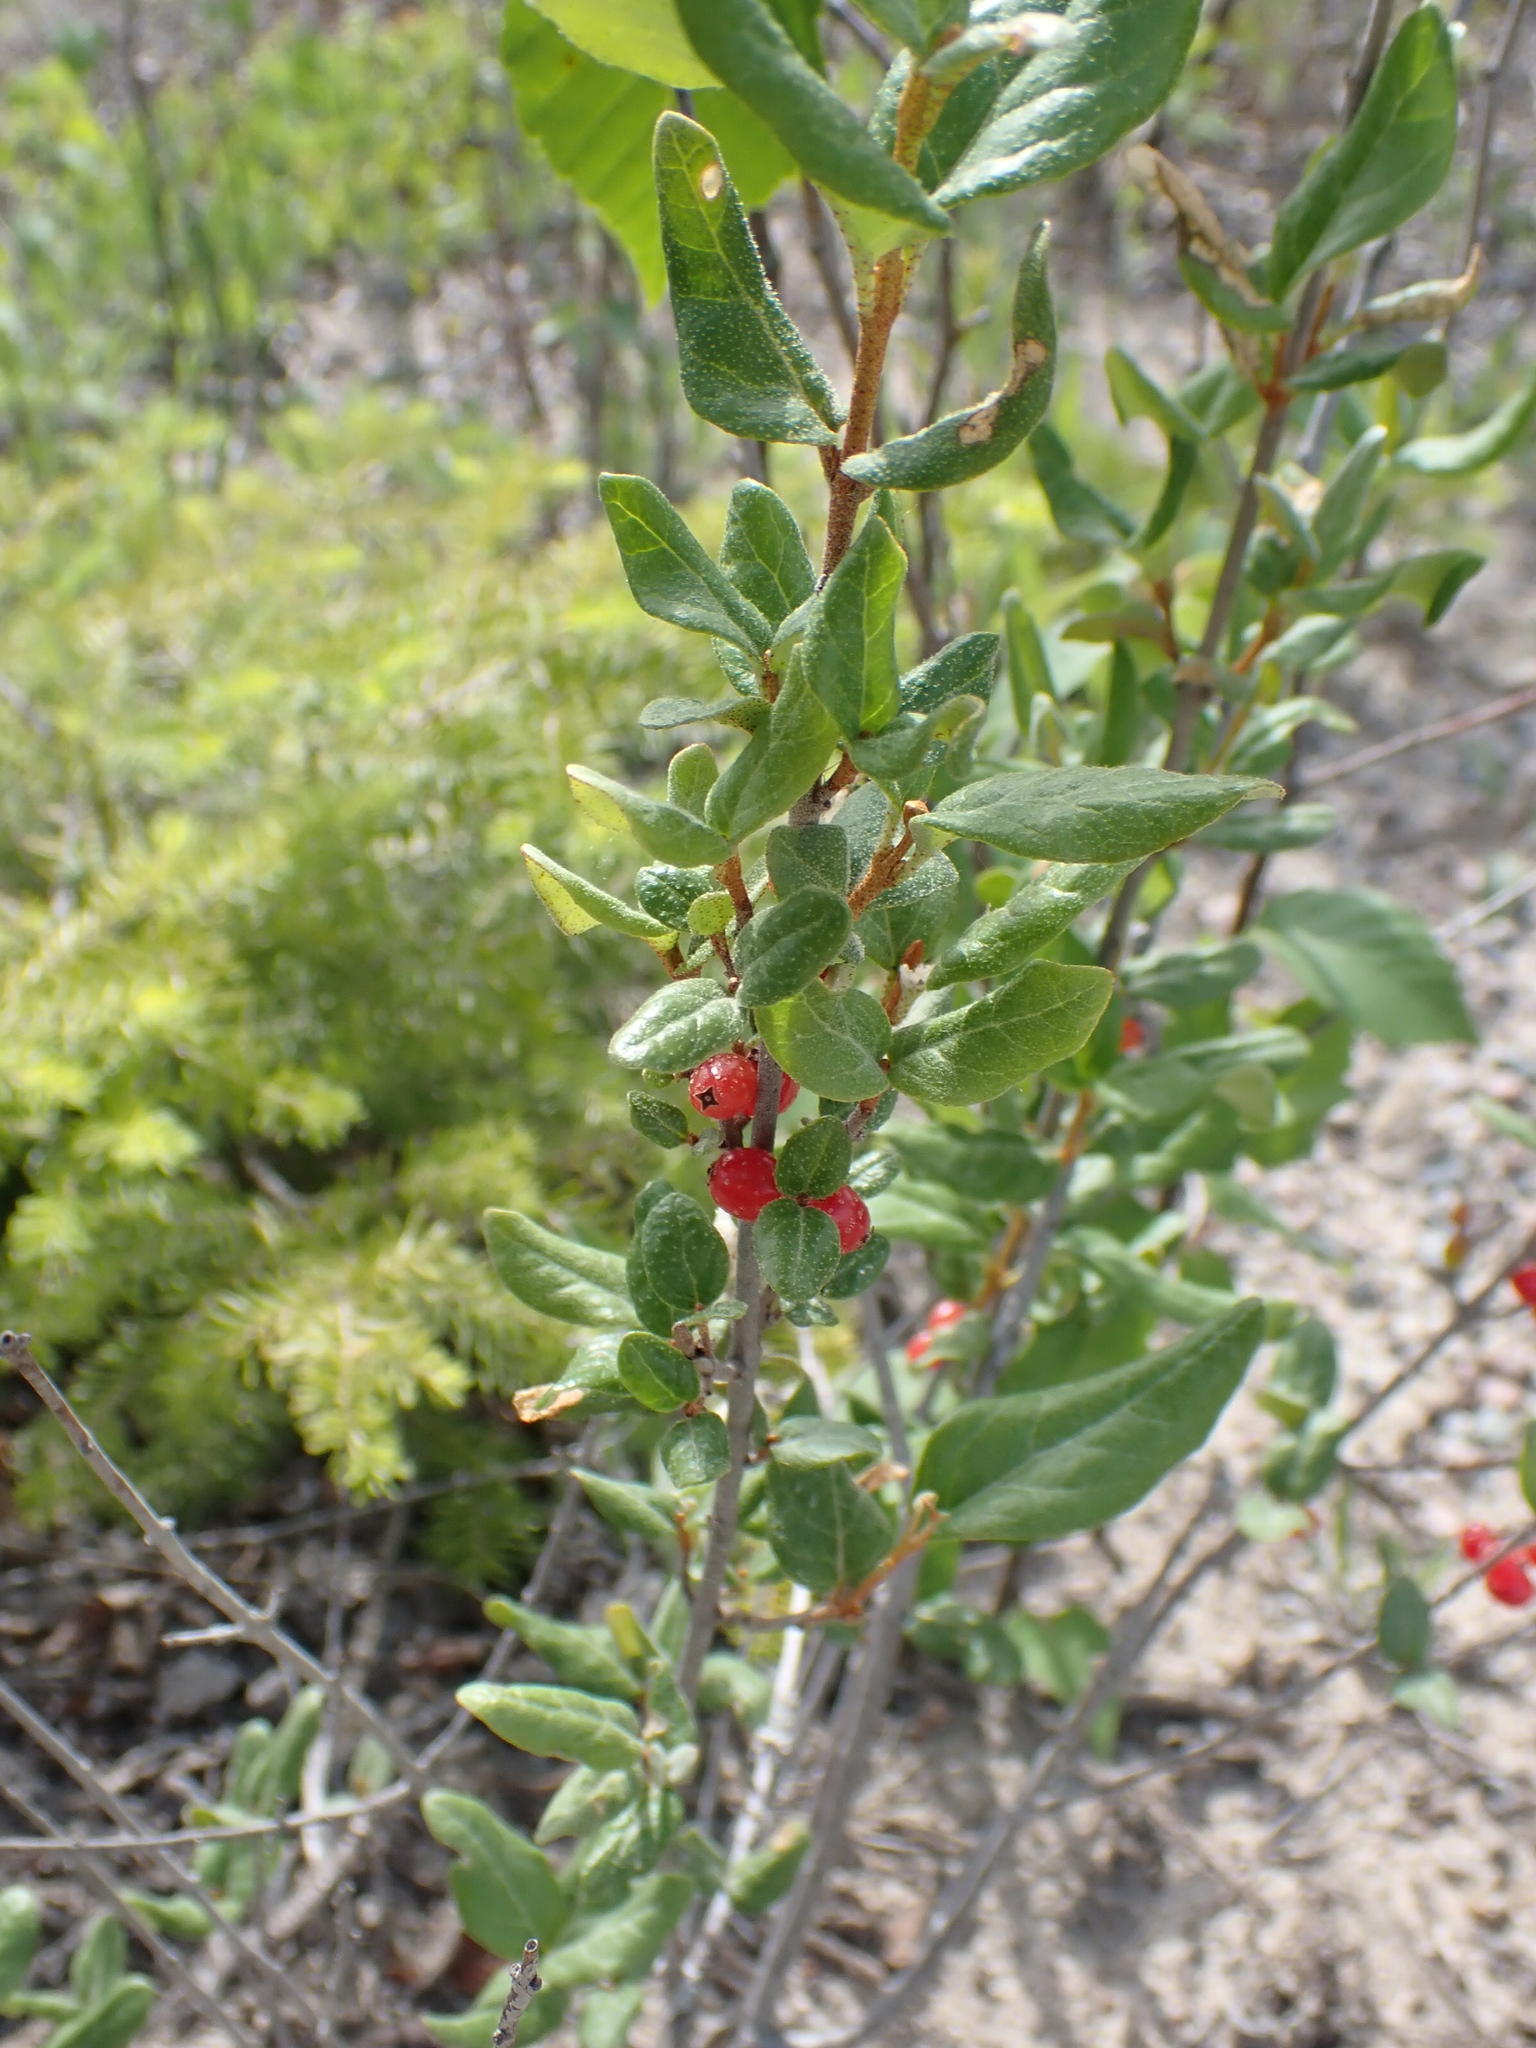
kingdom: Plantae
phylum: Tracheophyta
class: Magnoliopsida
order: Rosales
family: Elaeagnaceae
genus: Shepherdia
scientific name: Shepherdia canadensis
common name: Soapberry
